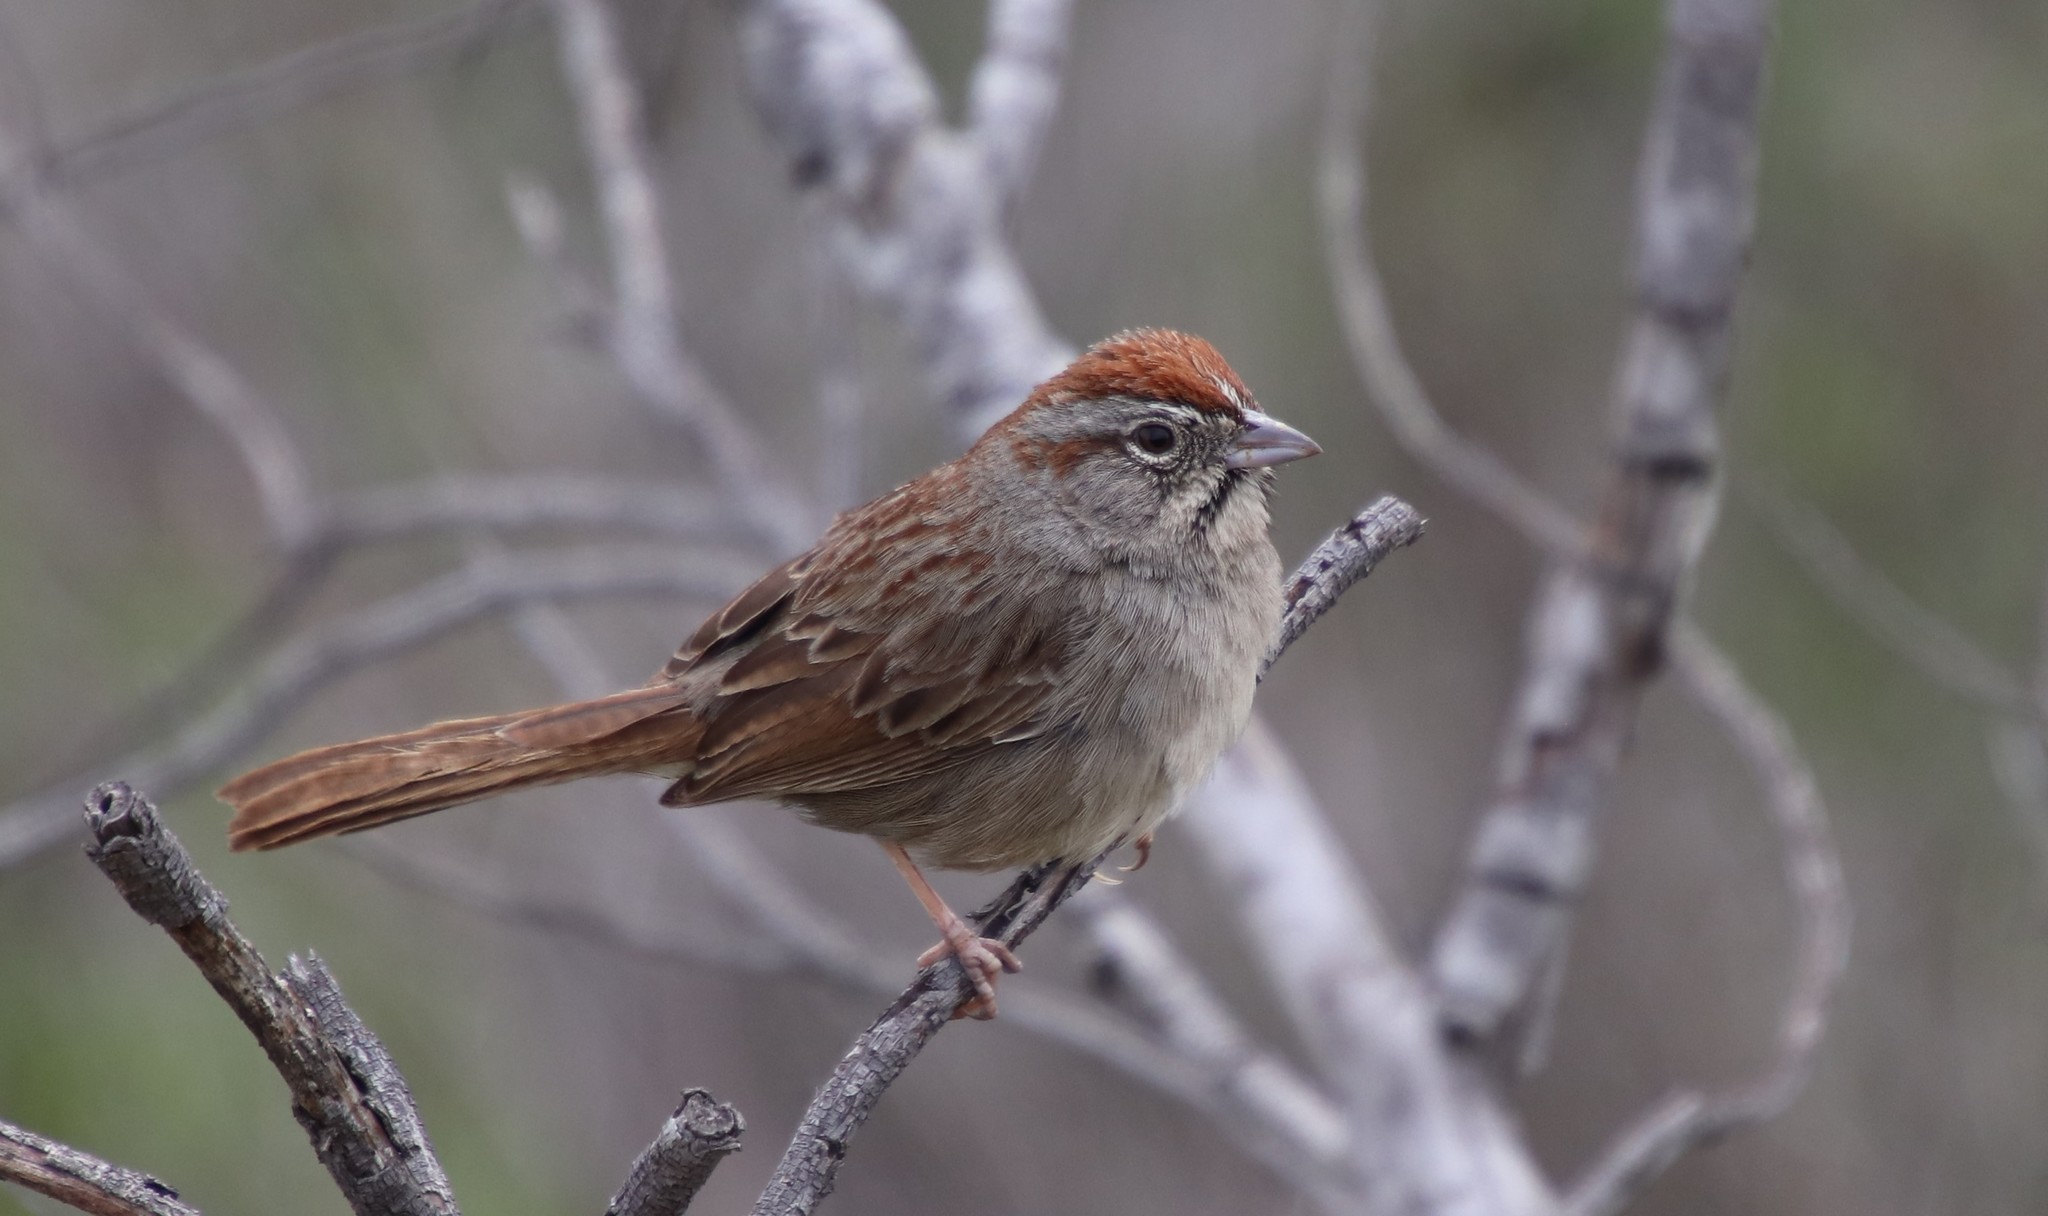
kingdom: Animalia
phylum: Chordata
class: Aves
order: Passeriformes
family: Passerellidae
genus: Aimophila
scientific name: Aimophila ruficeps
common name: Rufous-crowned sparrow
